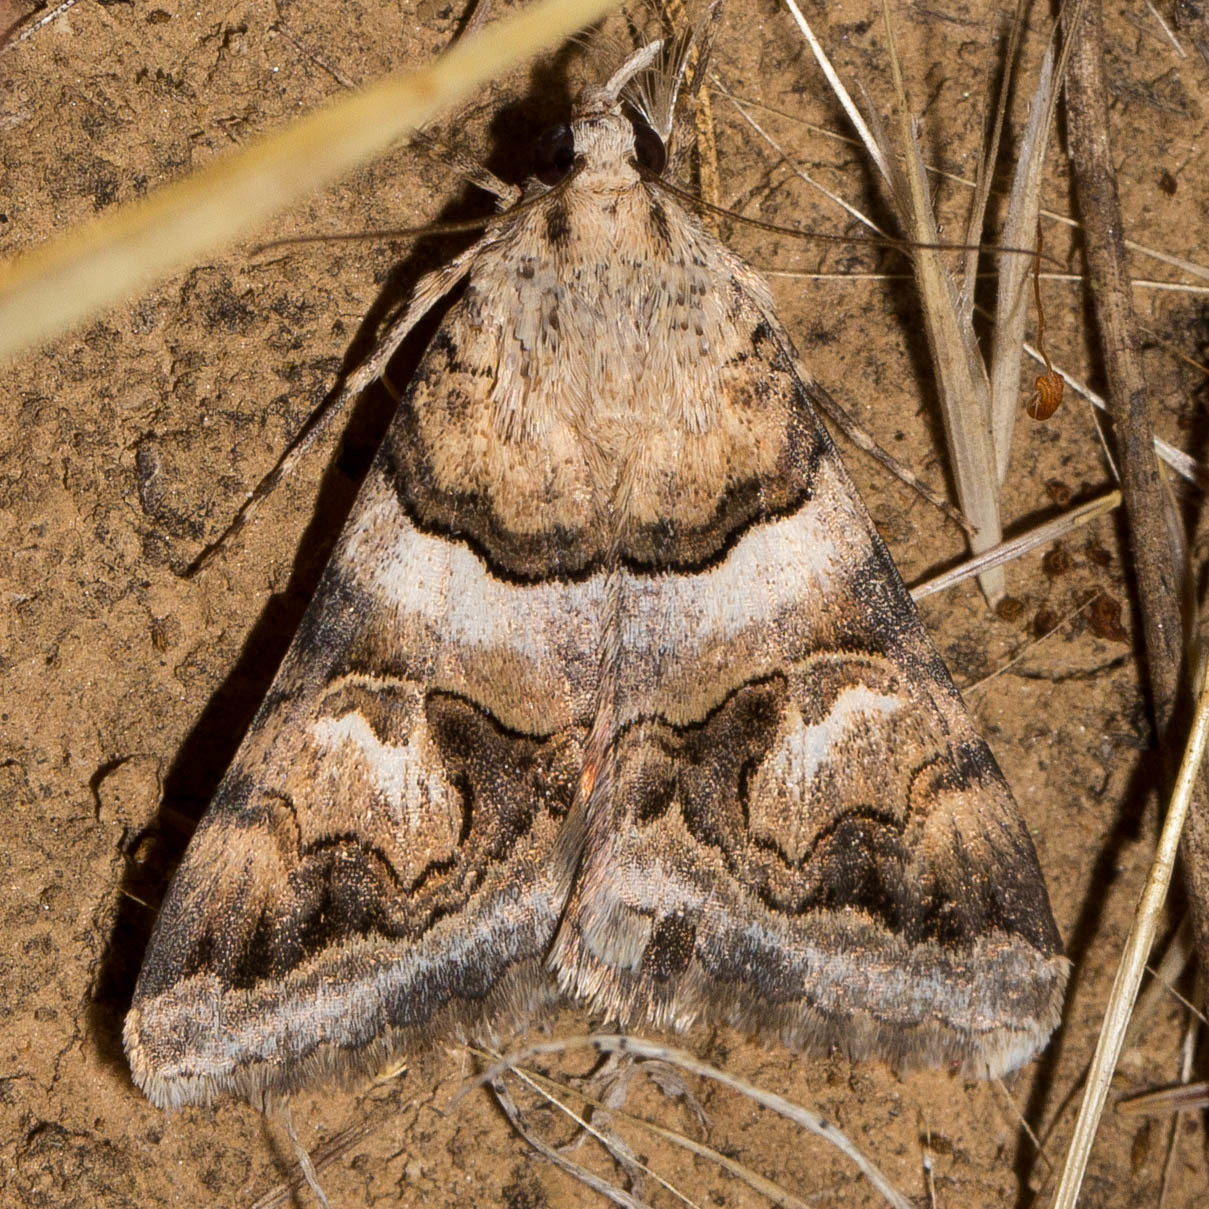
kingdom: Animalia
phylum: Arthropoda
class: Insecta
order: Lepidoptera
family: Erebidae
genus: Drasteria
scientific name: Drasteria howlandii
